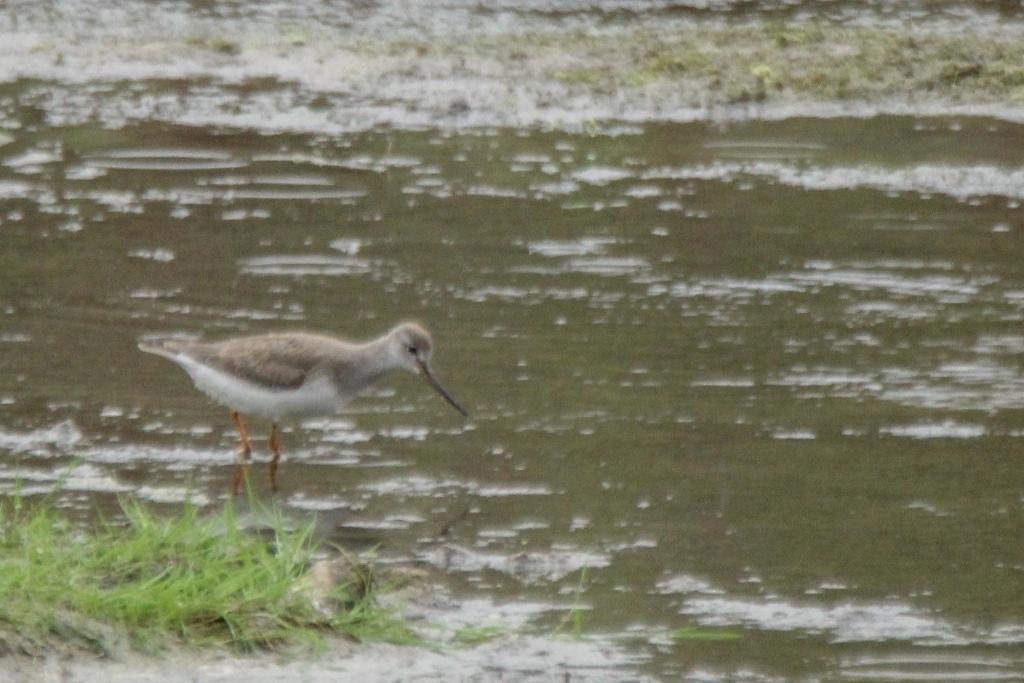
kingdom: Animalia
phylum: Chordata
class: Aves
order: Charadriiformes
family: Scolopacidae
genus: Xenus
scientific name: Xenus cinereus
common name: Terek sandpiper
